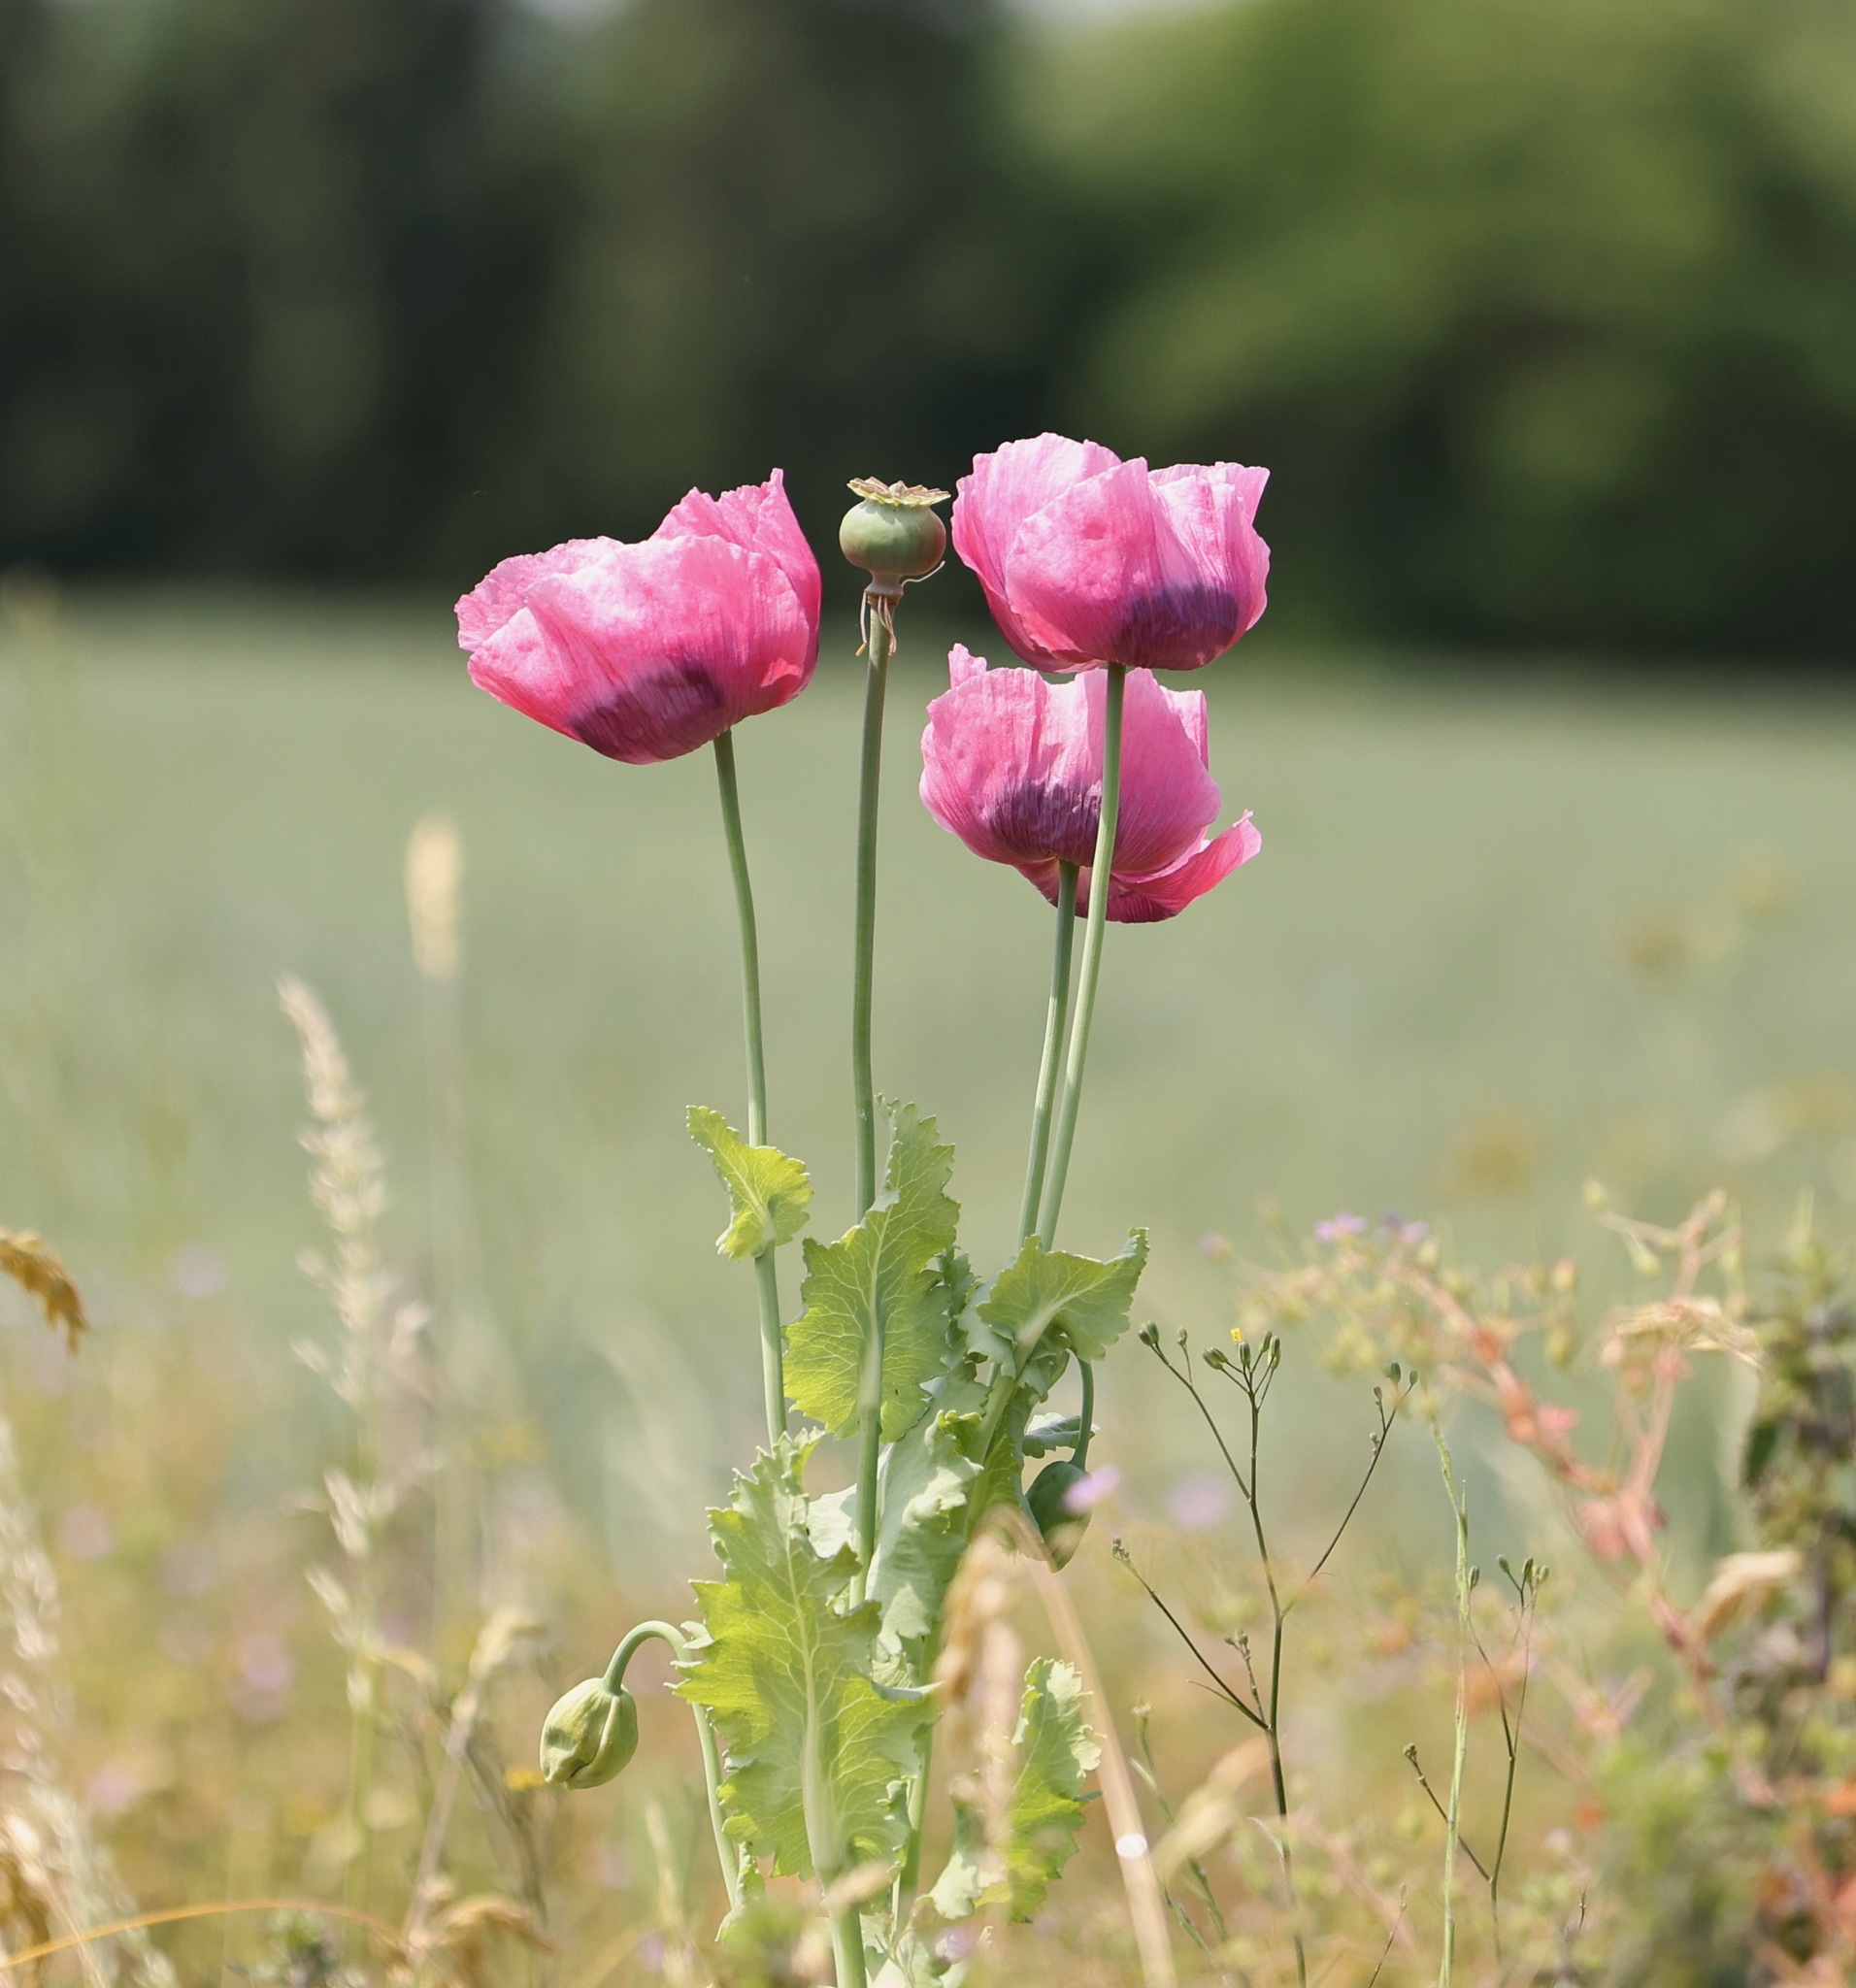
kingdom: Plantae
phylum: Tracheophyta
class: Magnoliopsida
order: Ranunculales
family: Papaveraceae
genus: Papaver
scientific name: Papaver somniferum
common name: Opium poppy
